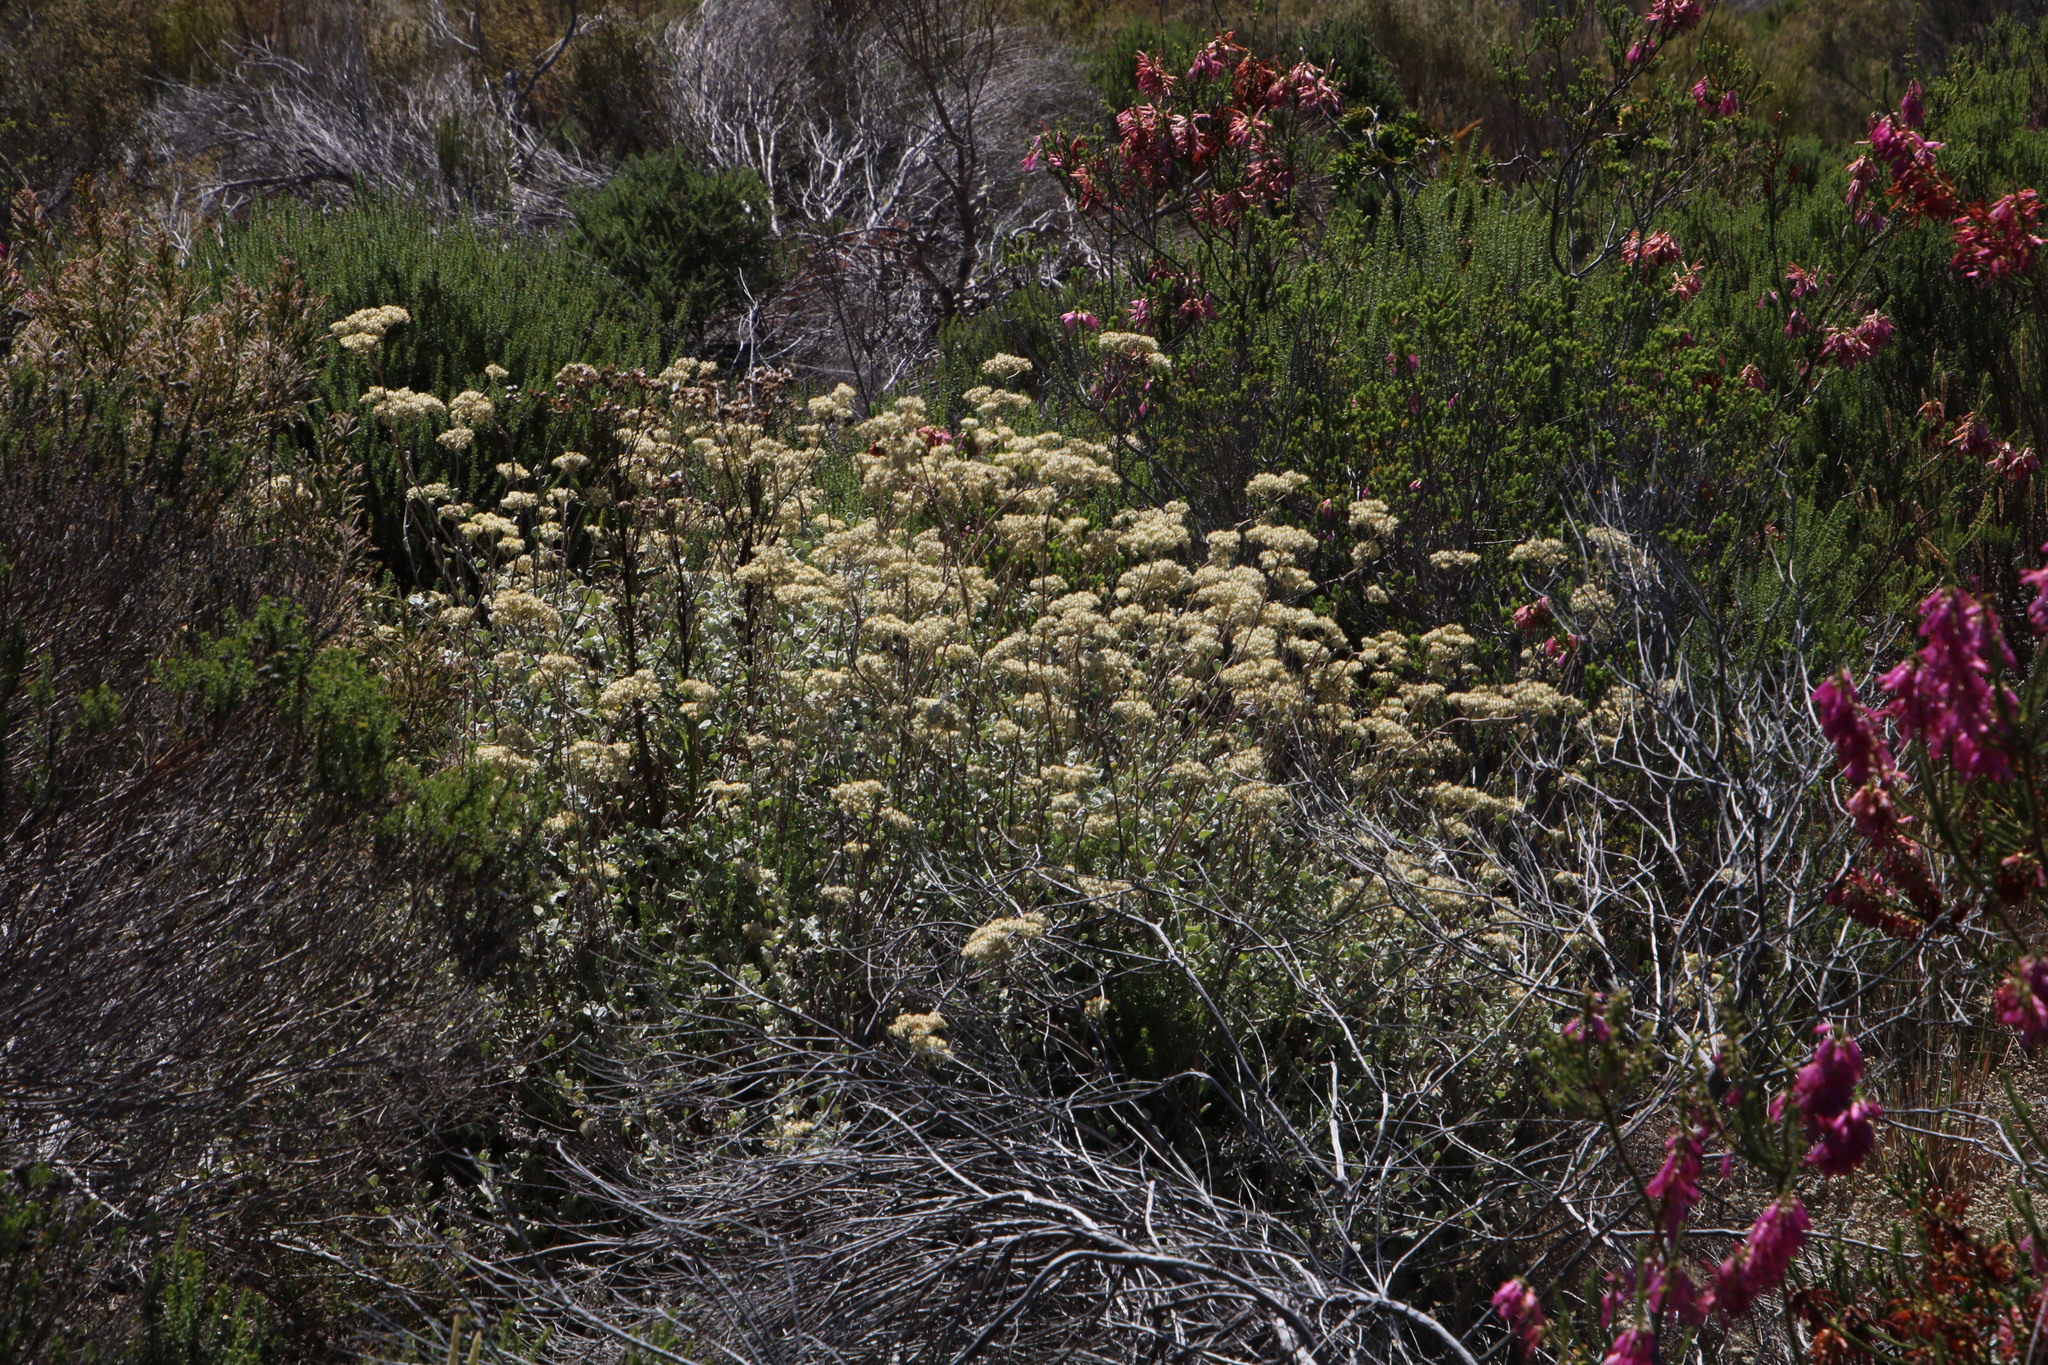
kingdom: Plantae
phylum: Tracheophyta
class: Magnoliopsida
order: Asterales
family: Asteraceae
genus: Helichrysum
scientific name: Helichrysum pandurifolium
